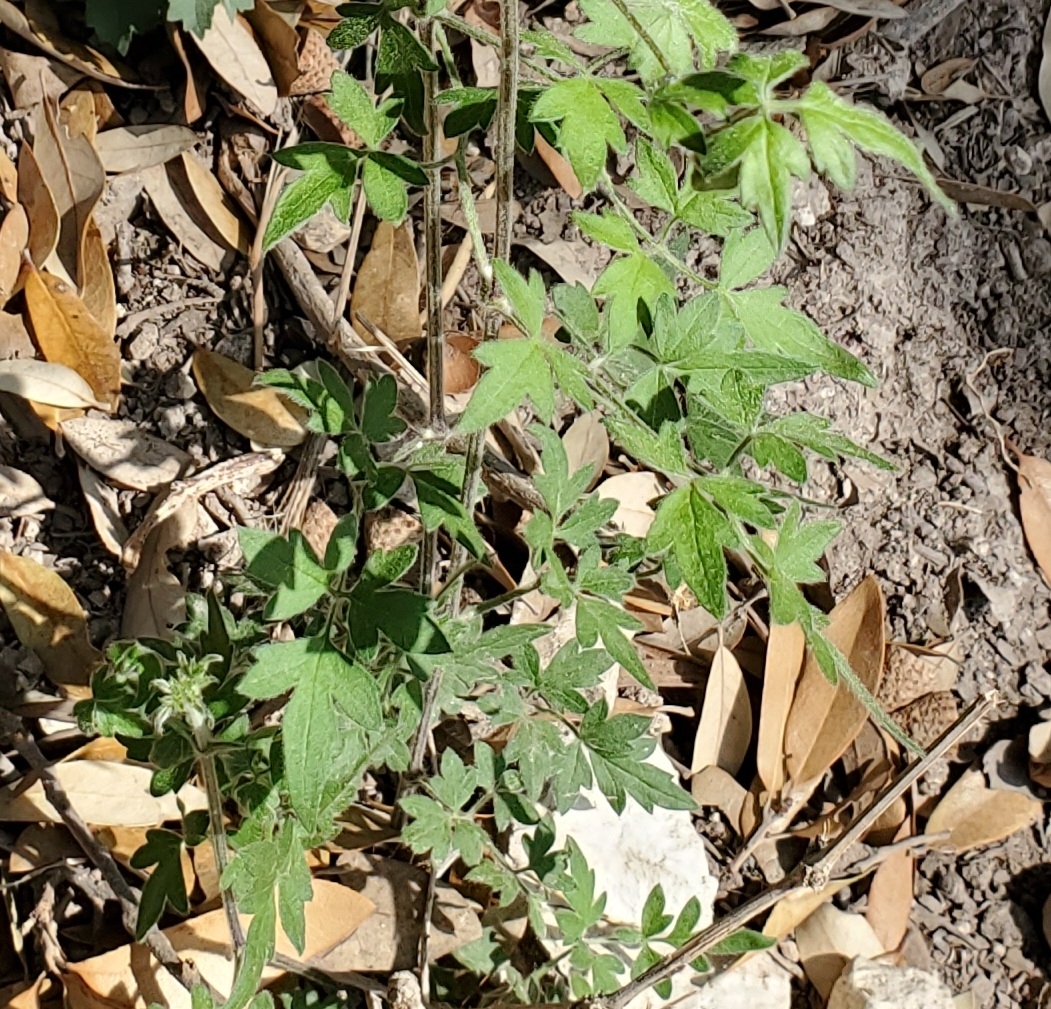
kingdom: Plantae
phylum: Tracheophyta
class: Magnoliopsida
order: Ranunculales
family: Ranunculaceae
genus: Clematis
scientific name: Clematis drummondii
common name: Texas virgin's bower
